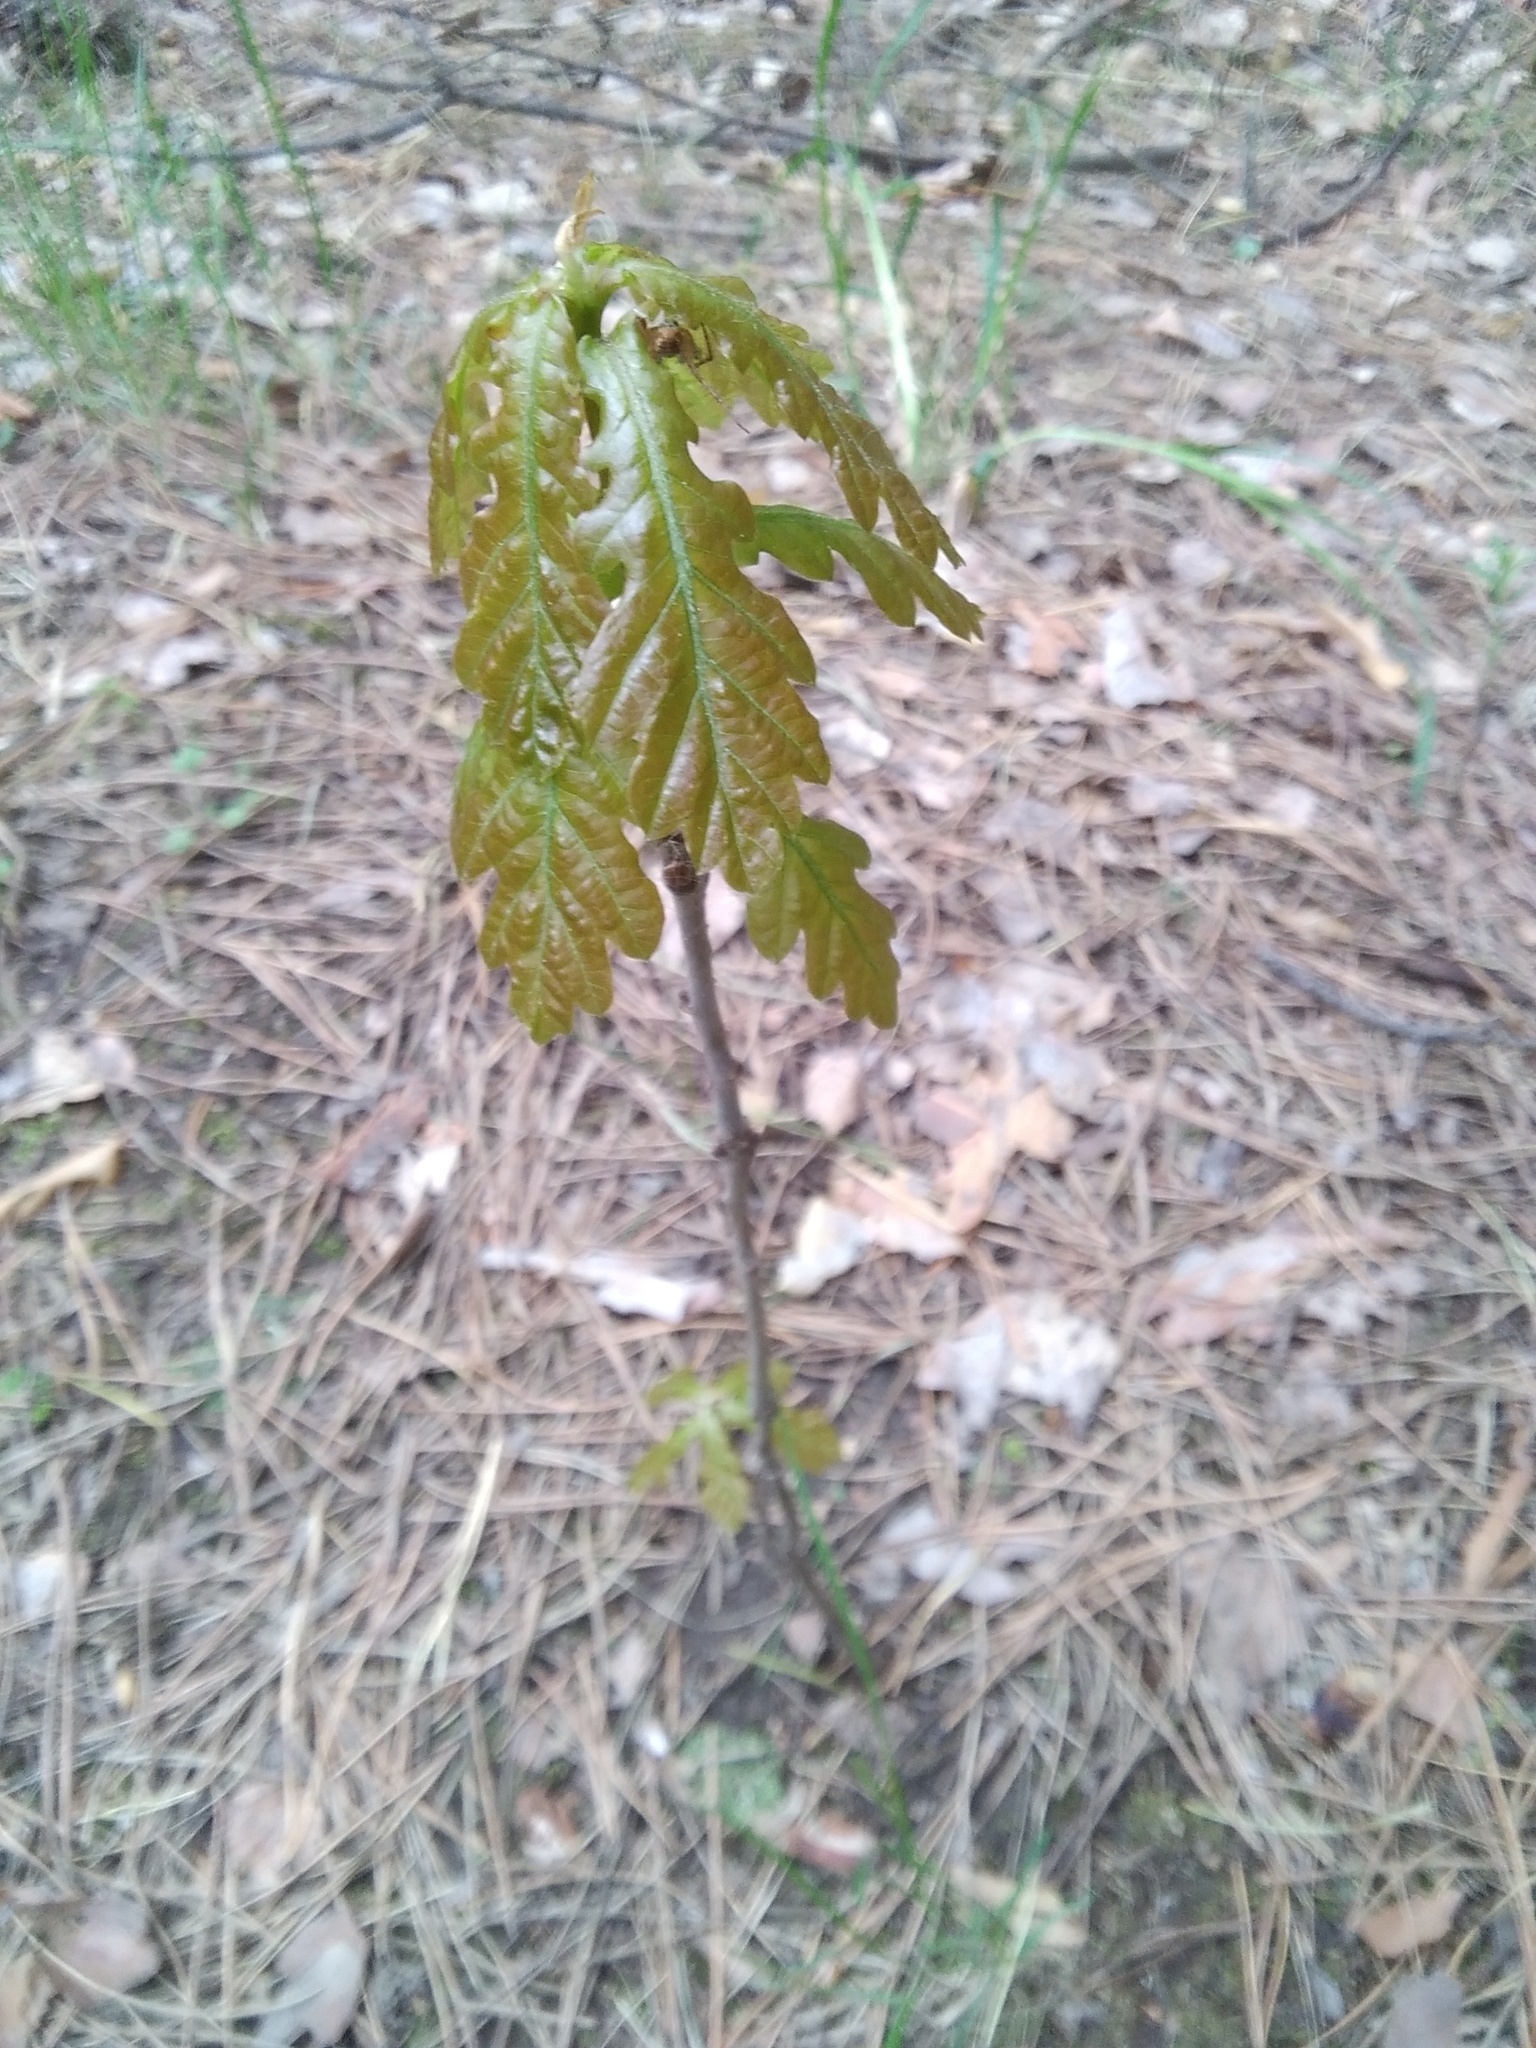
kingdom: Plantae
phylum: Tracheophyta
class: Magnoliopsida
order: Fagales
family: Fagaceae
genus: Quercus
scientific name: Quercus robur
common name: Pedunculate oak
